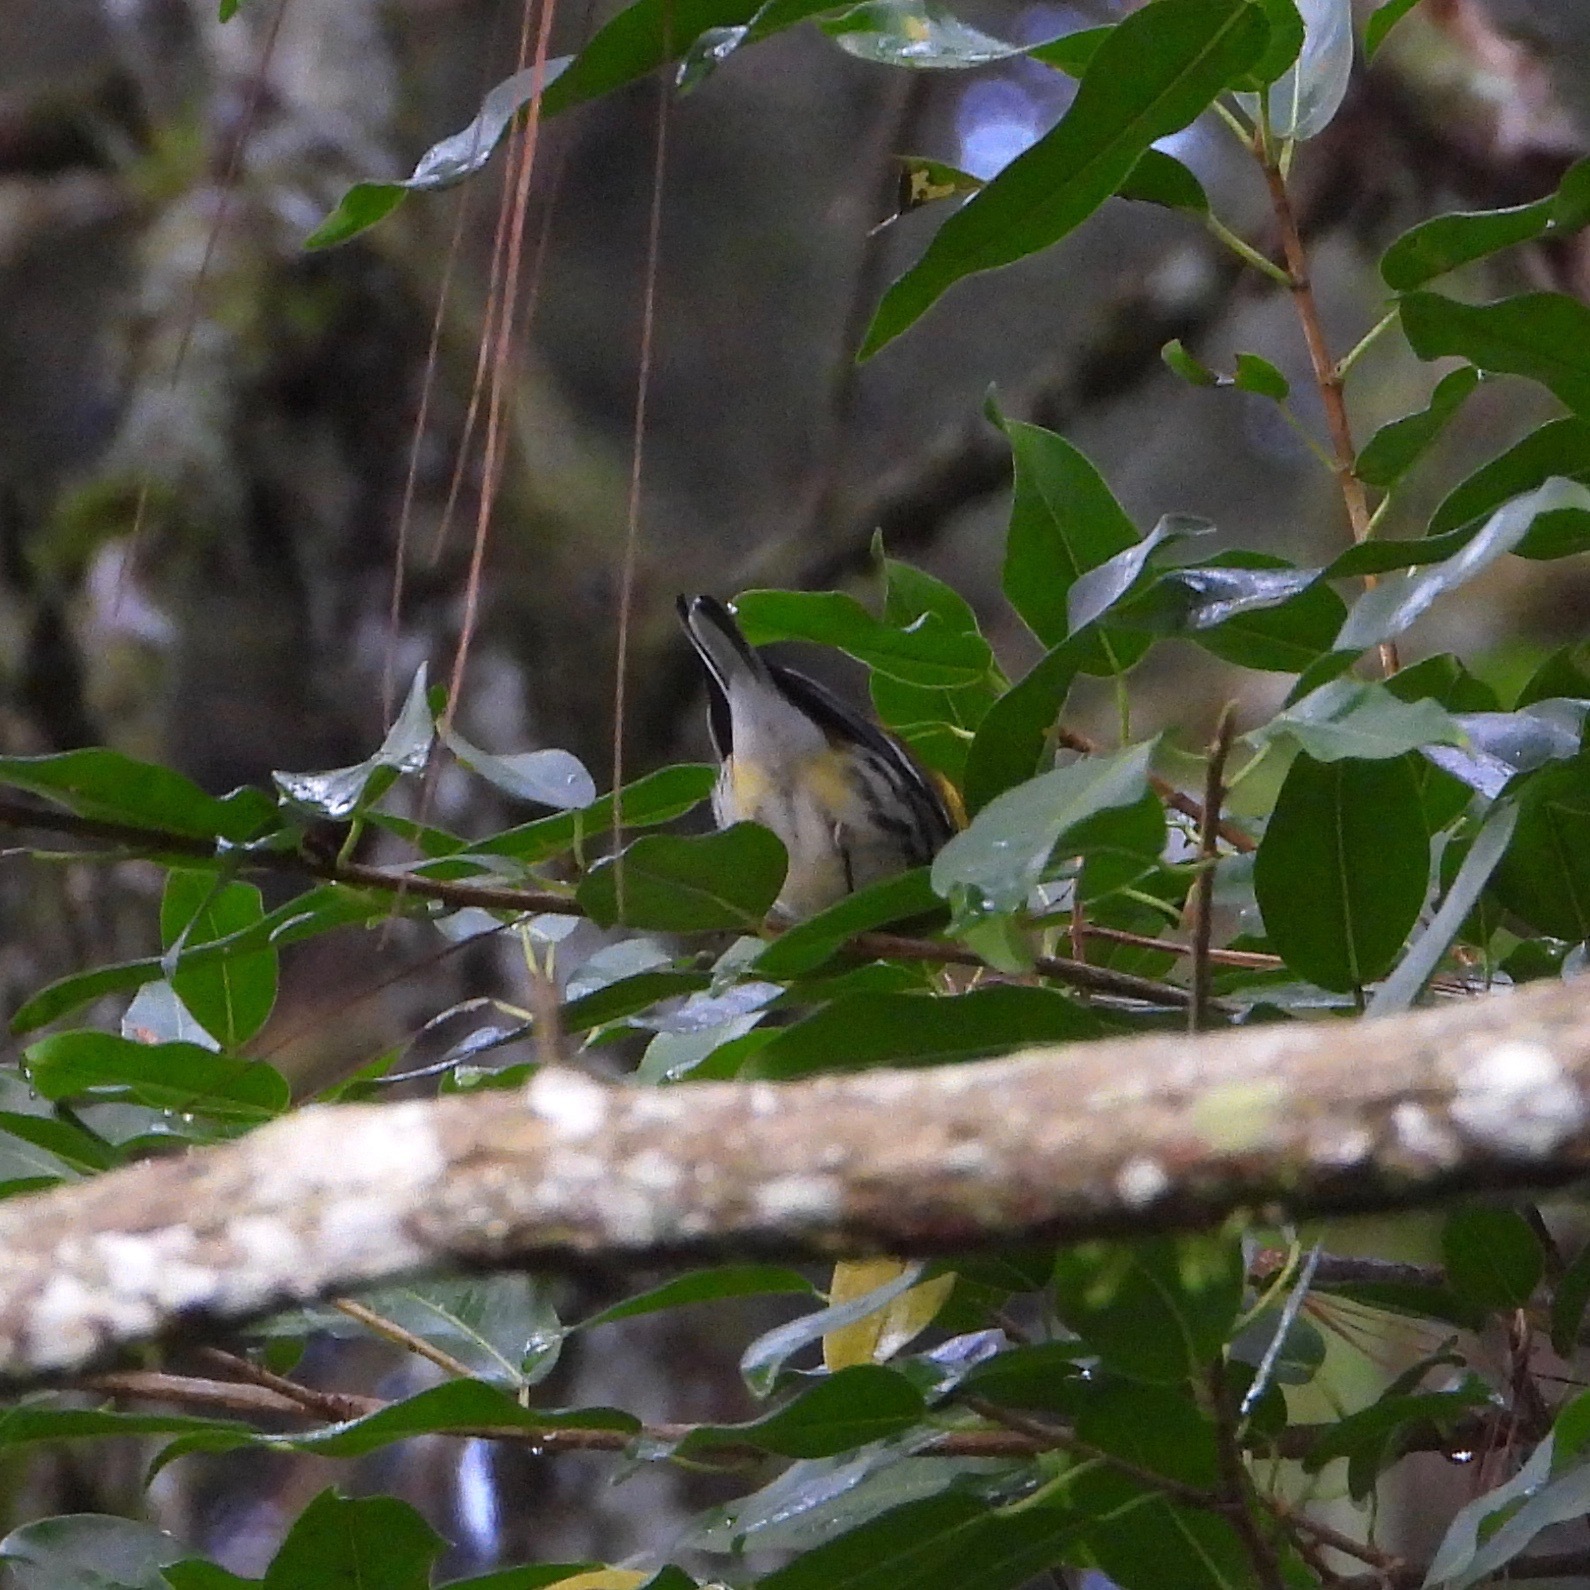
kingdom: Animalia
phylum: Chordata
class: Aves
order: Passeriformes
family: Parulidae
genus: Setophaga
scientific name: Setophaga virens
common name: Black-throated green warbler
